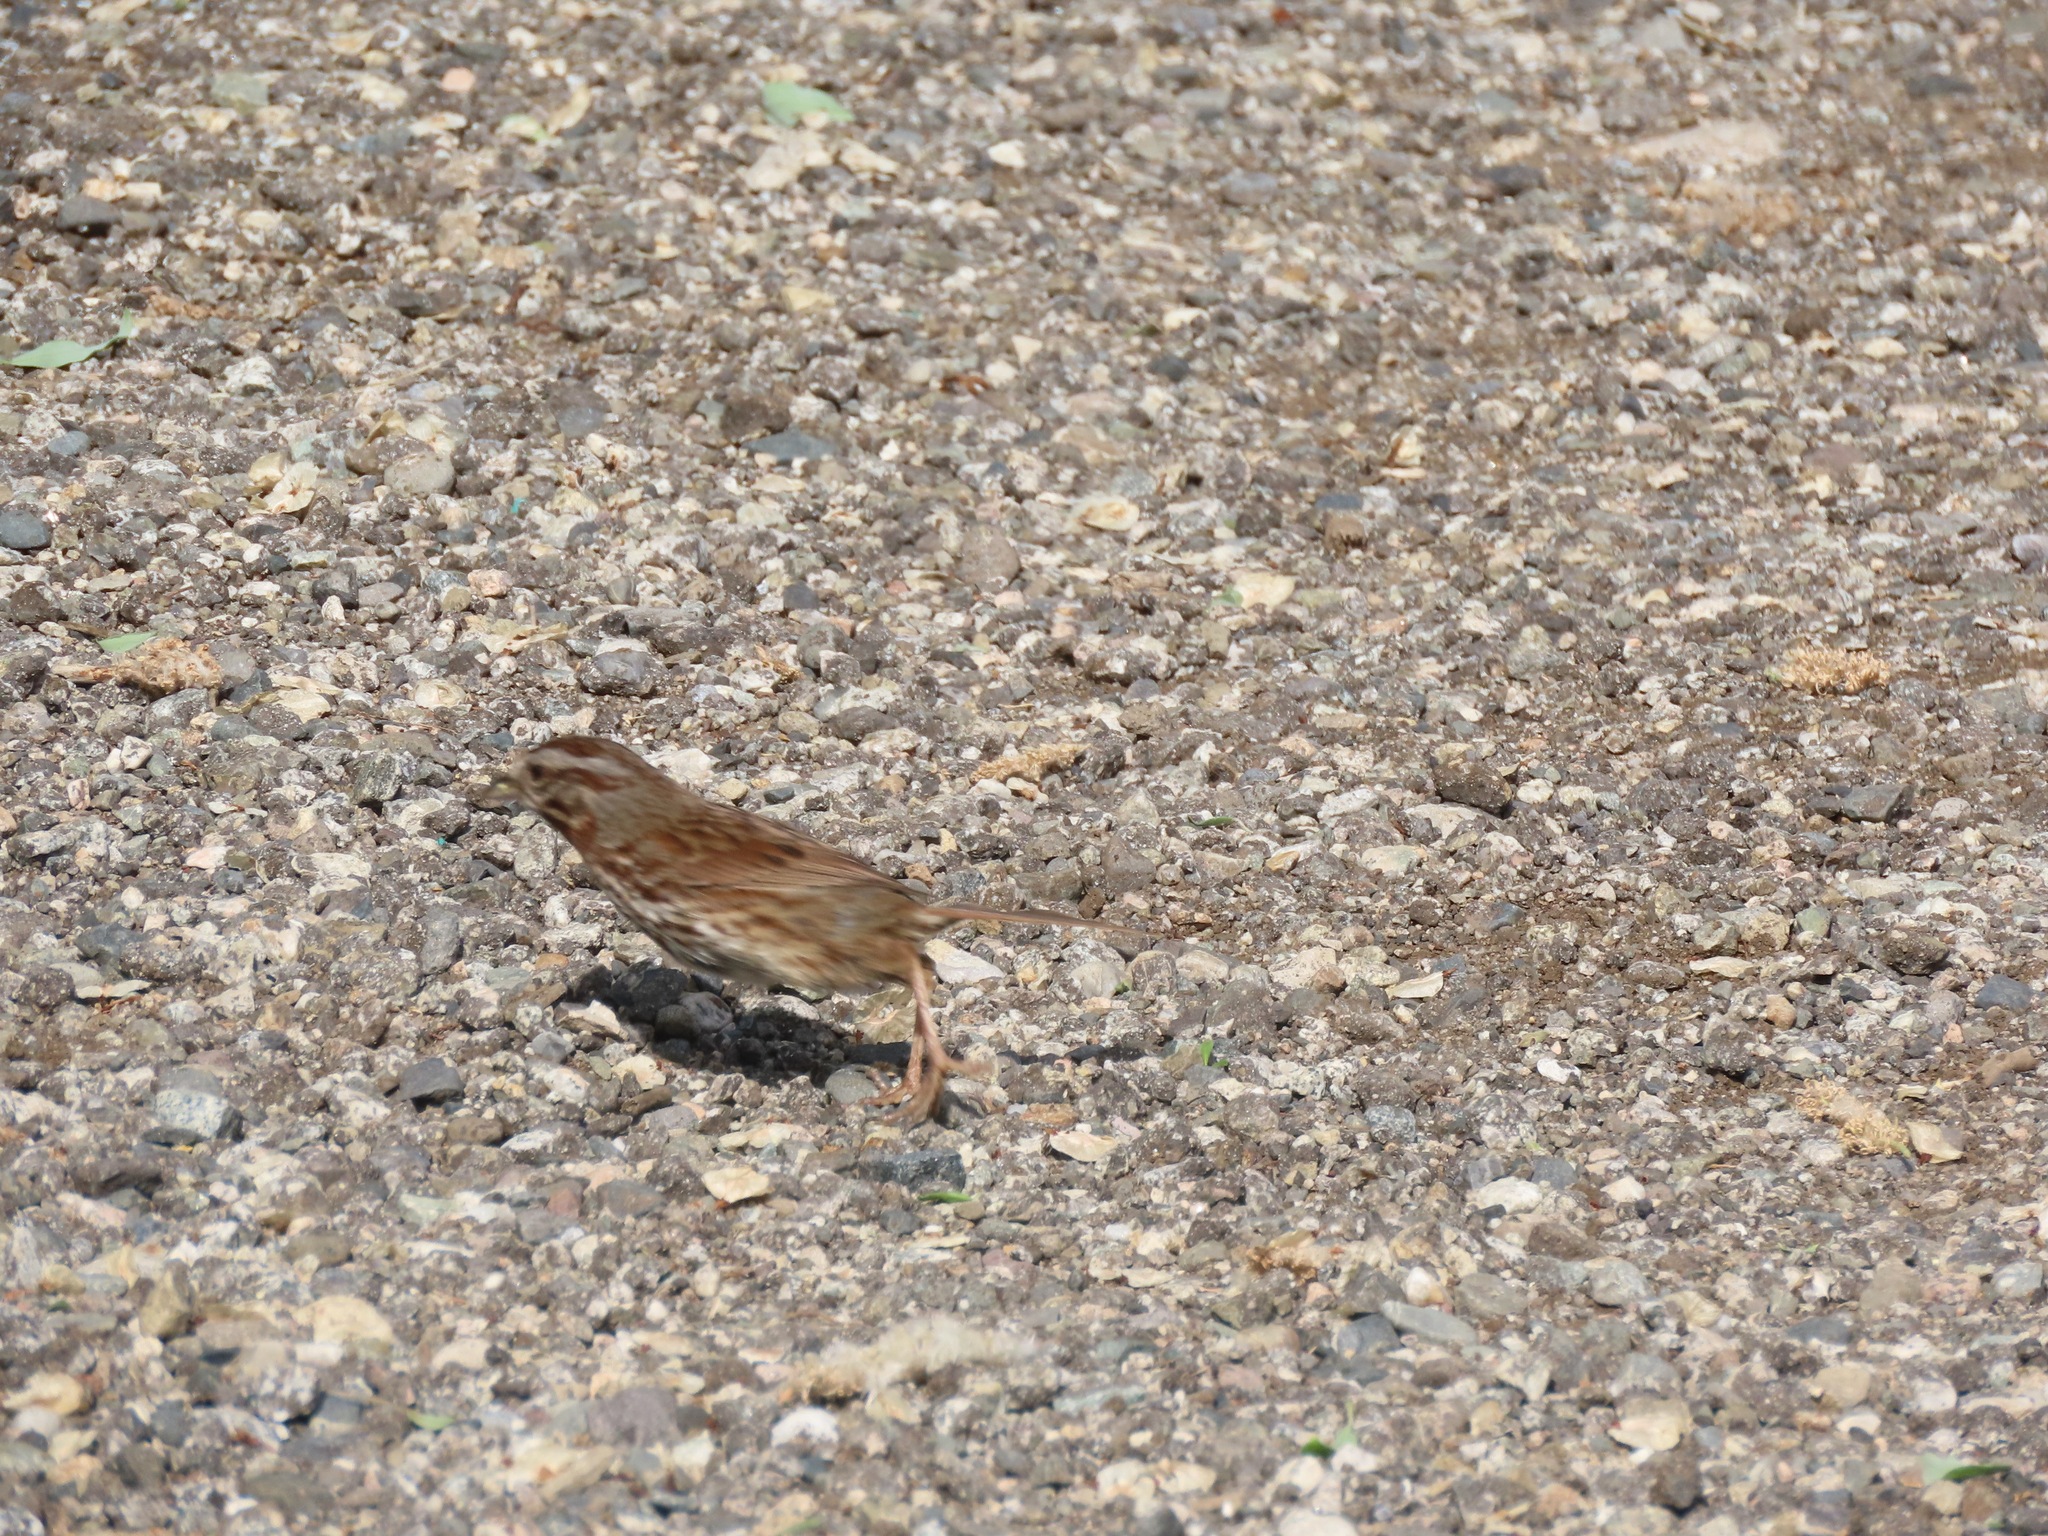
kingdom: Animalia
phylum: Chordata
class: Aves
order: Passeriformes
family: Passerellidae
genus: Melospiza
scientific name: Melospiza melodia
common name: Song sparrow
